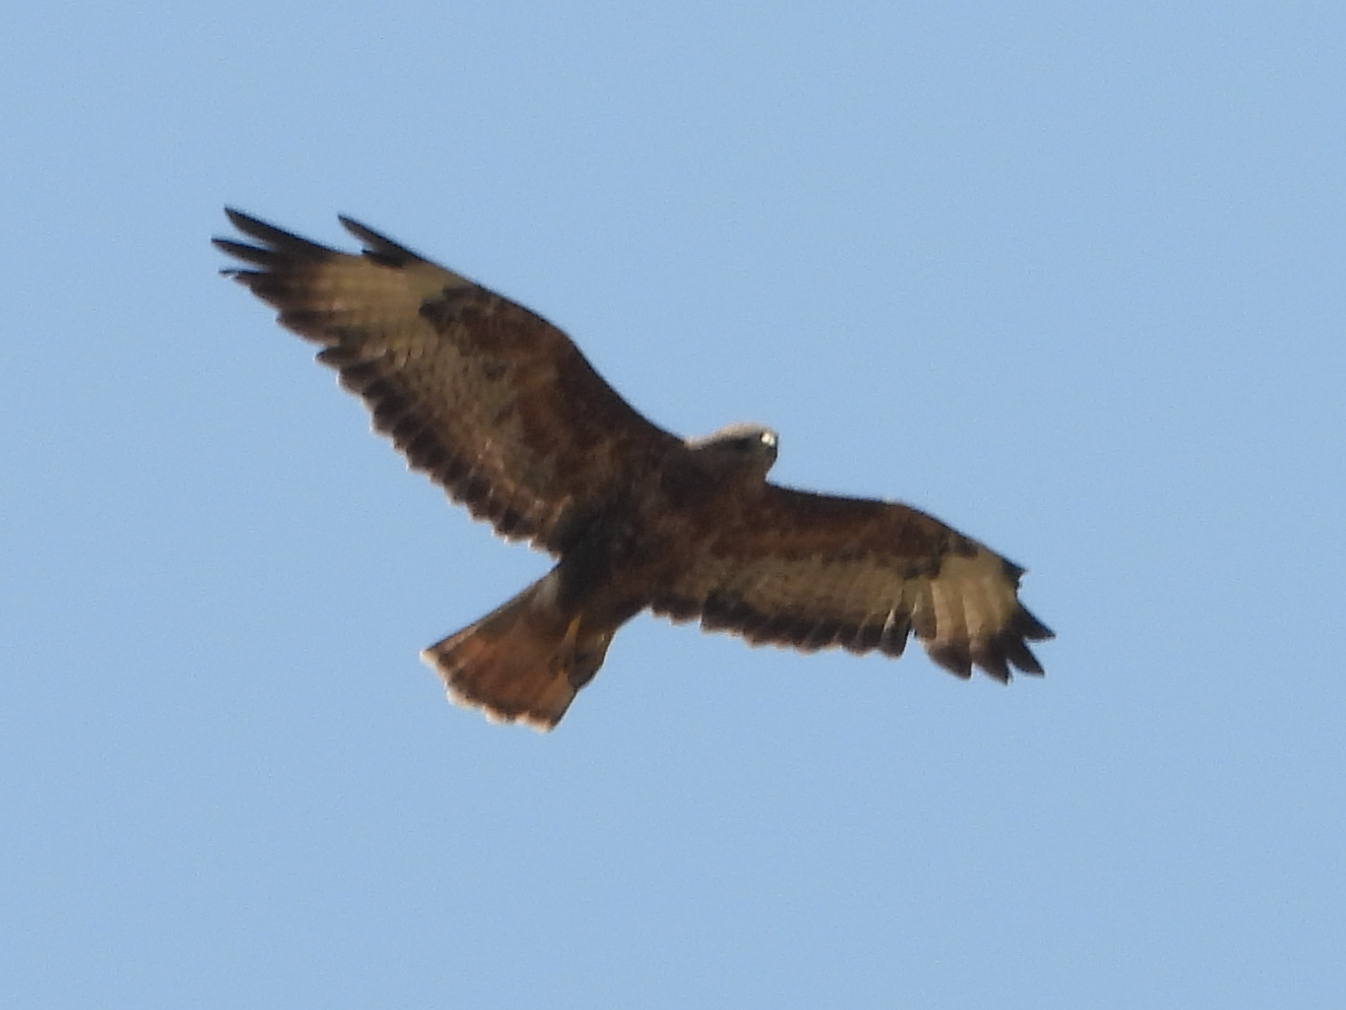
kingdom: Animalia
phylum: Chordata
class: Aves
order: Accipitriformes
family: Accipitridae
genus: Buteo
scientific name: Buteo buteo
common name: Common buzzard
